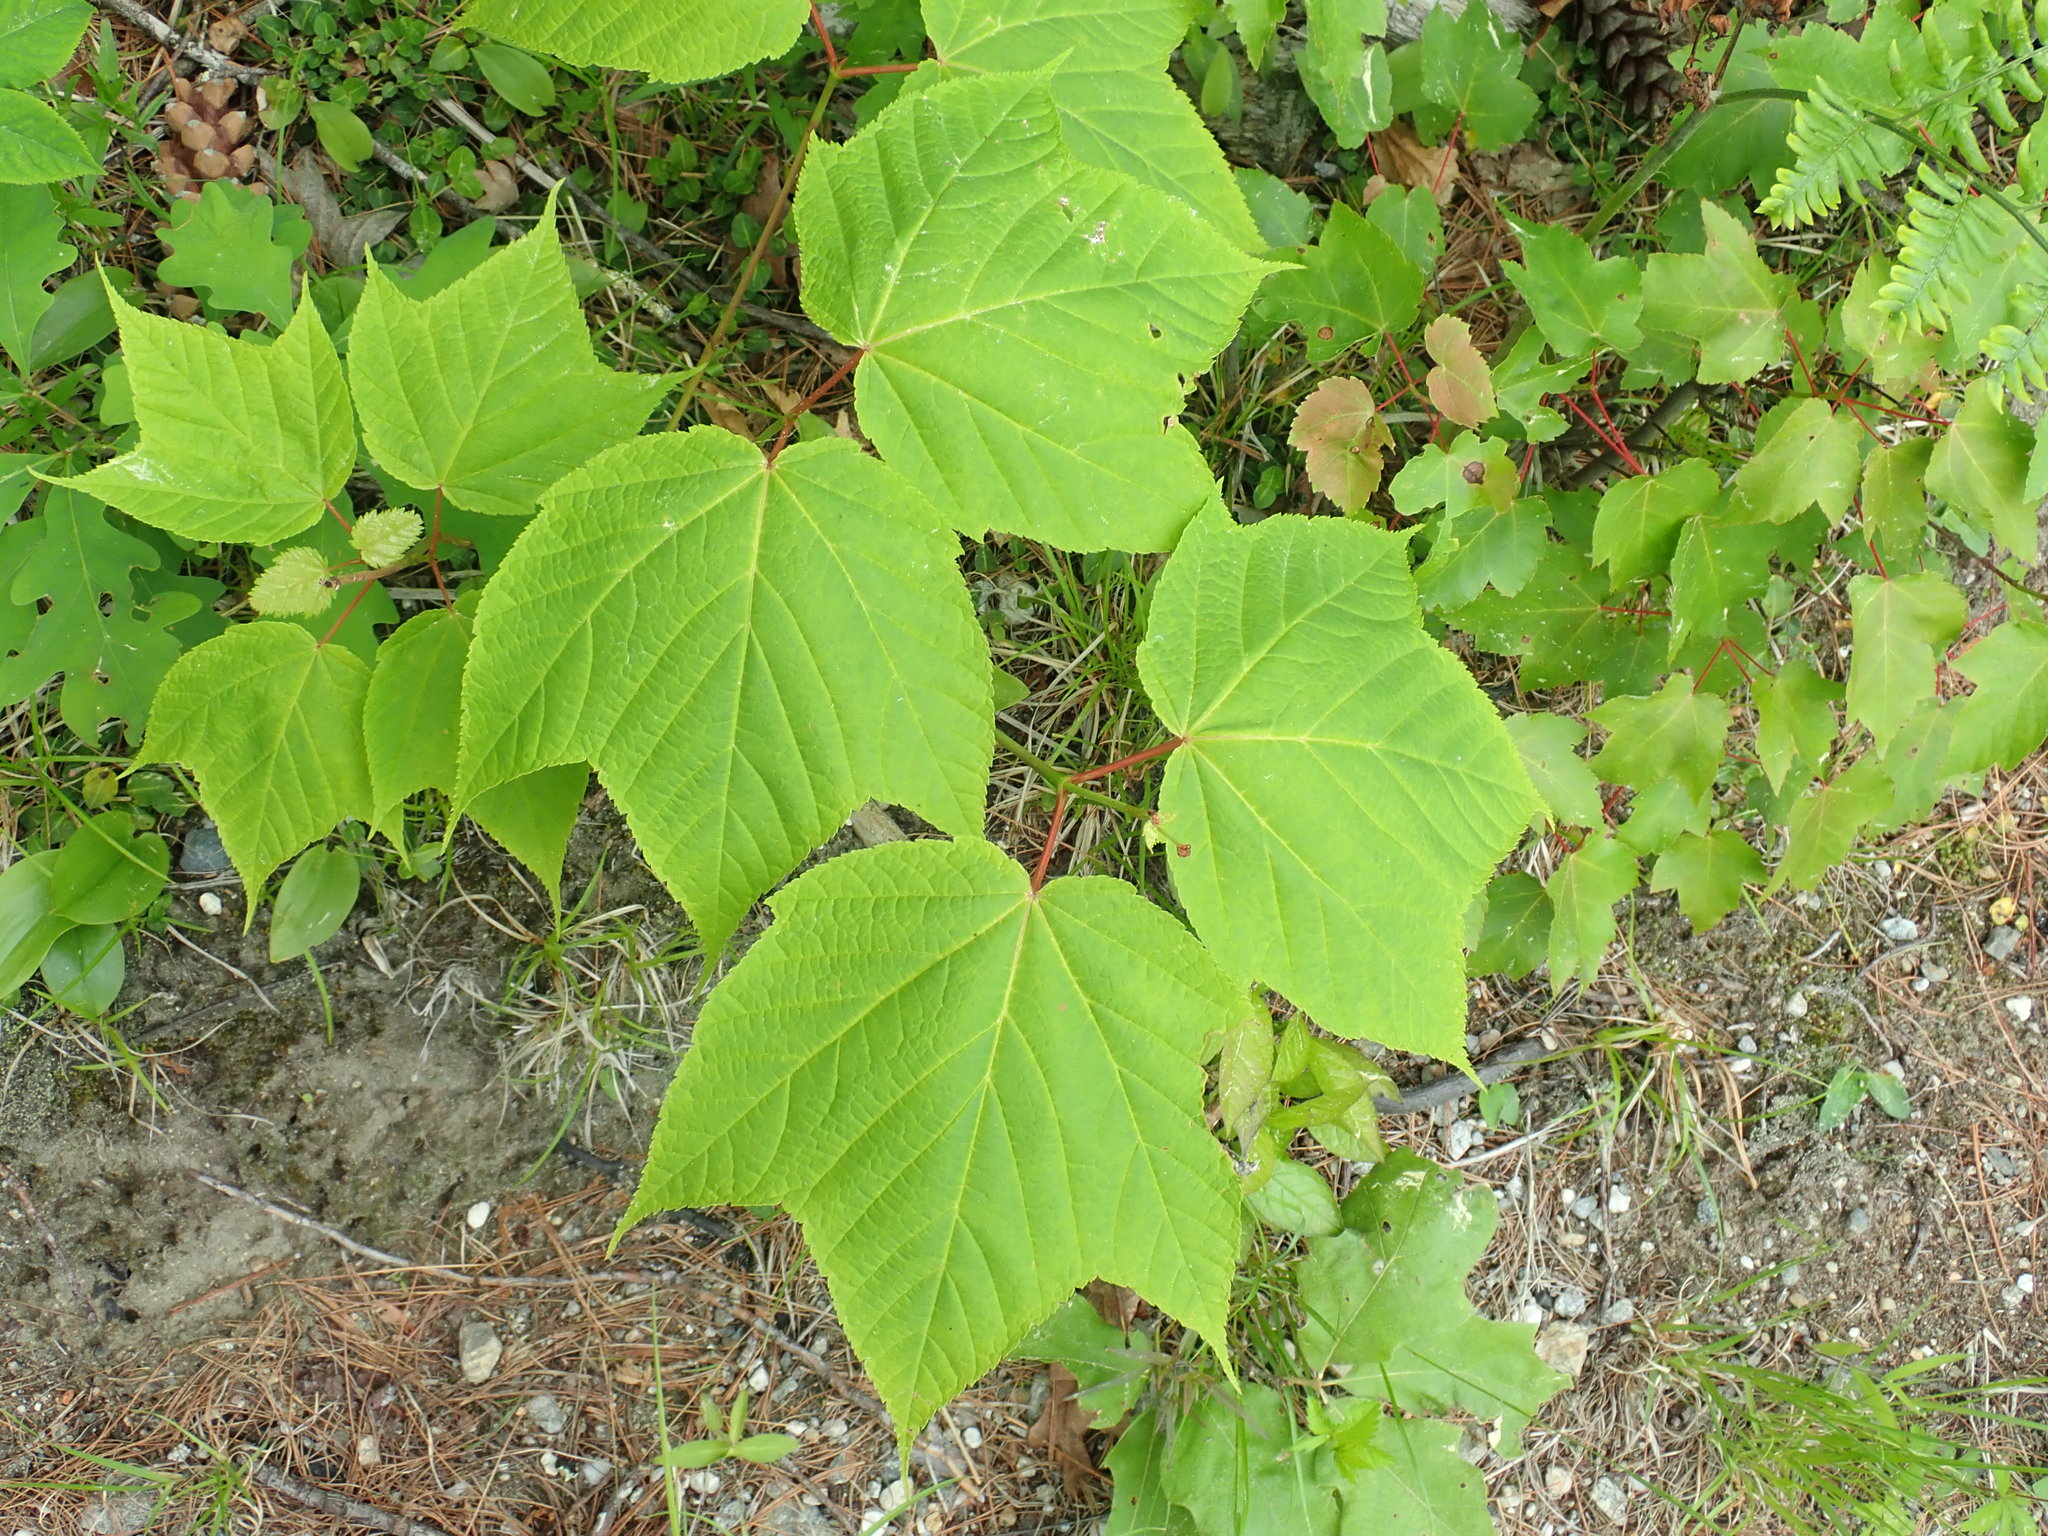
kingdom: Plantae
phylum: Tracheophyta
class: Magnoliopsida
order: Sapindales
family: Sapindaceae
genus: Acer
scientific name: Acer pensylvanicum
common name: Moosewood
